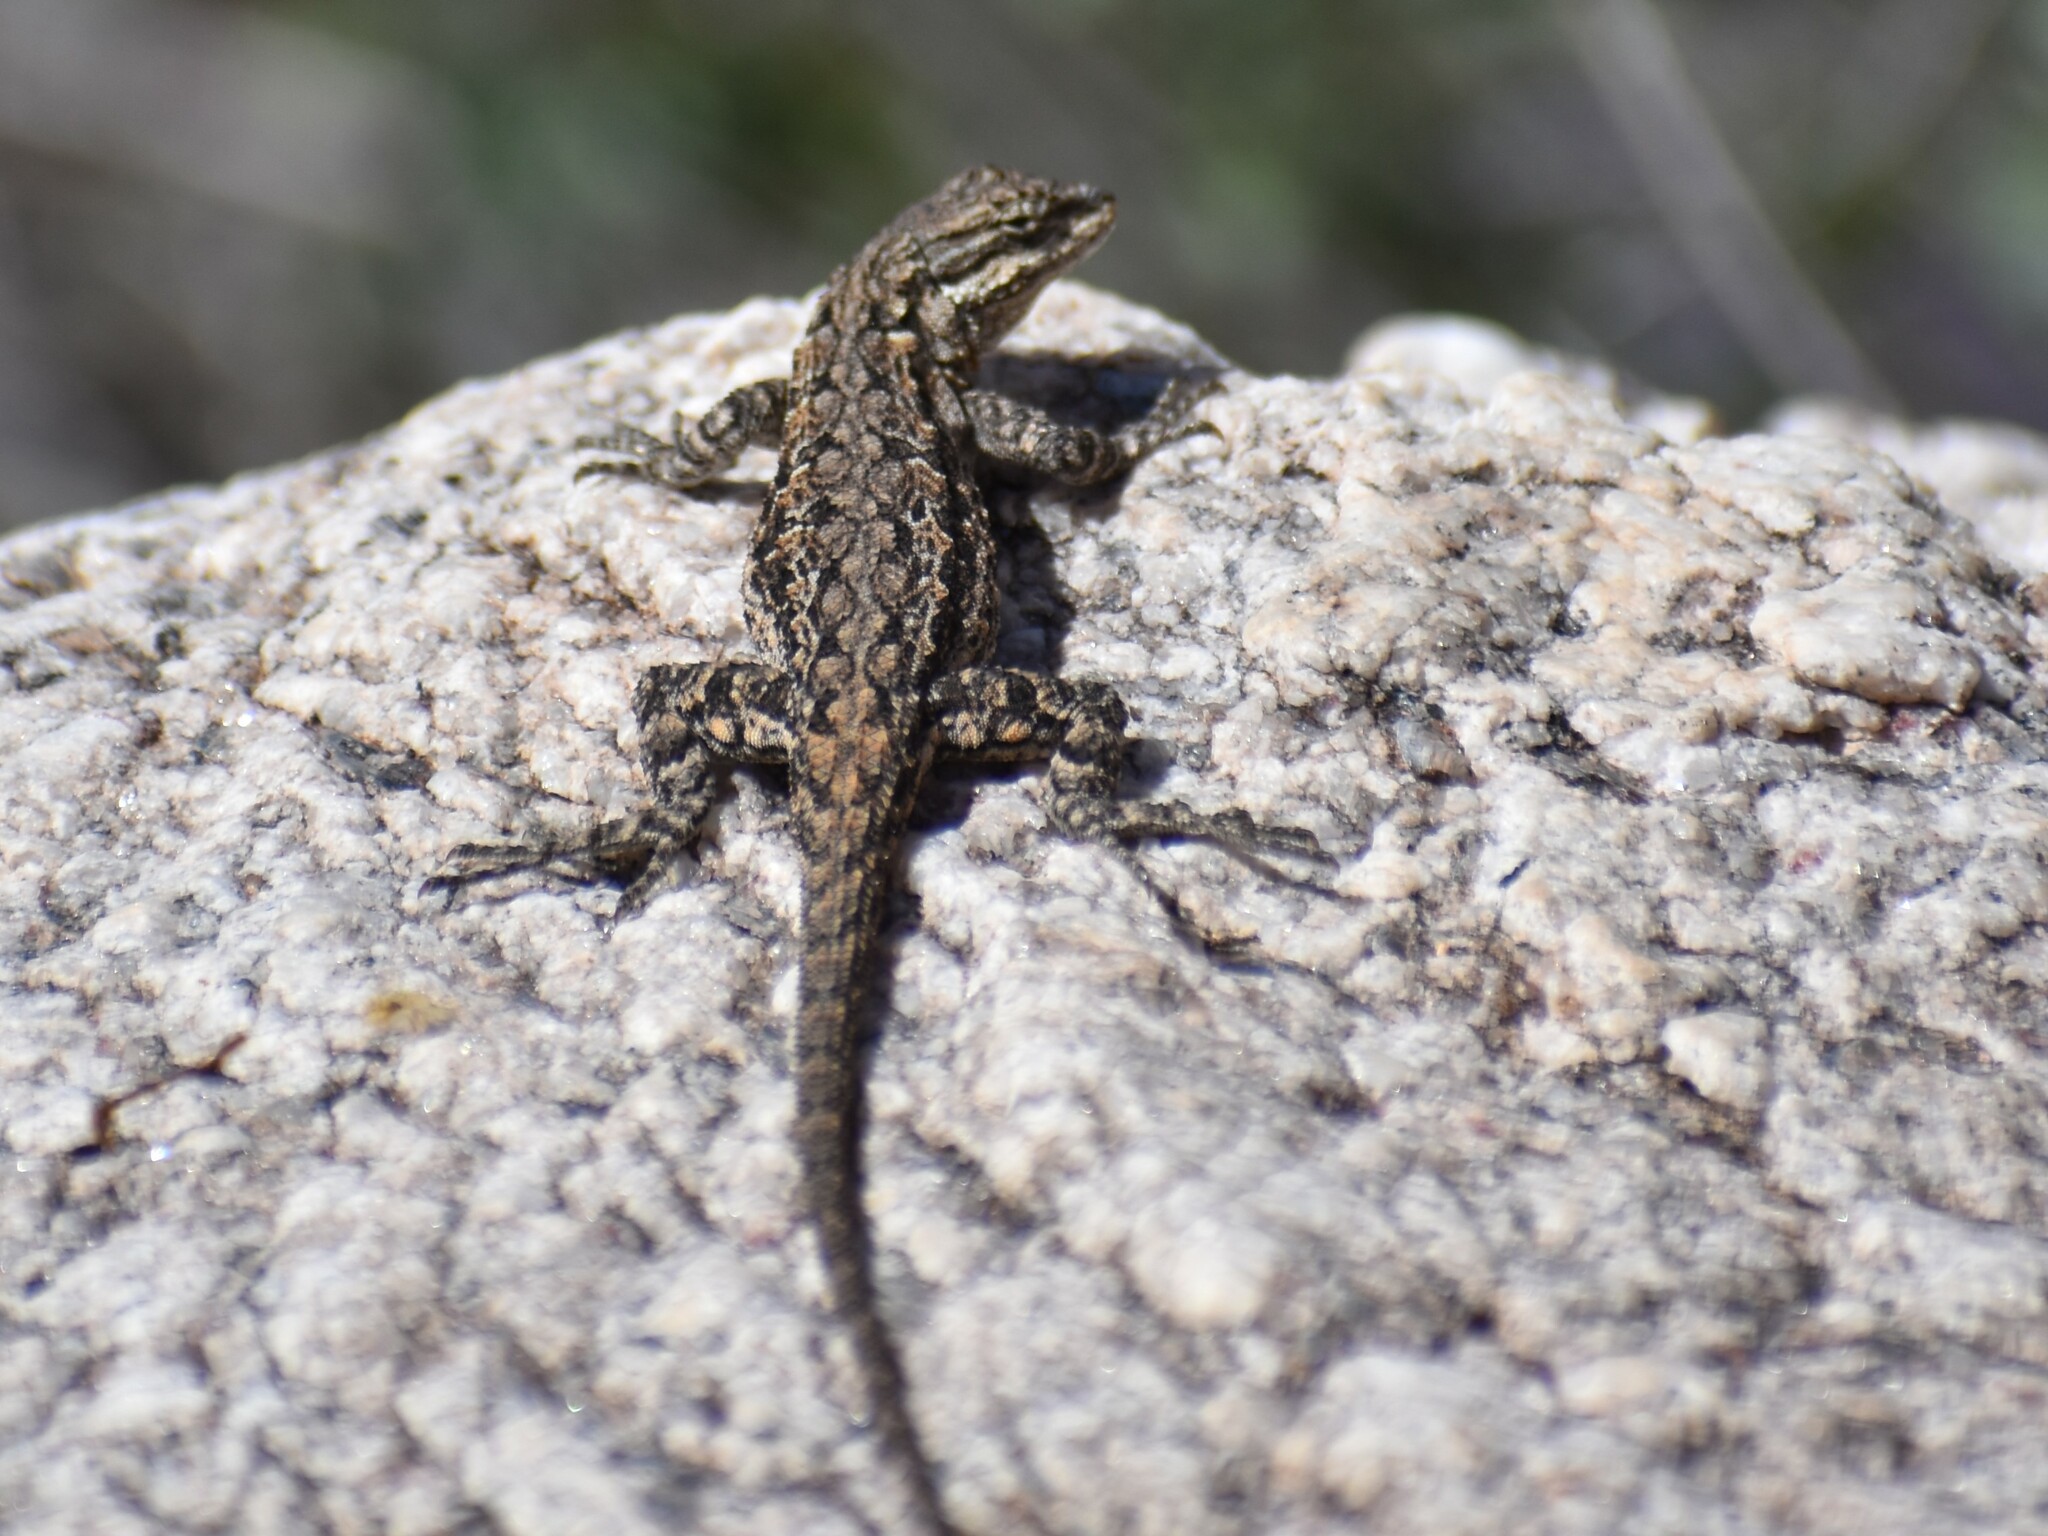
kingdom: Animalia
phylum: Chordata
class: Squamata
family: Phrynosomatidae
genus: Urosaurus
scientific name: Urosaurus ornatus
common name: Ornate tree lizard
